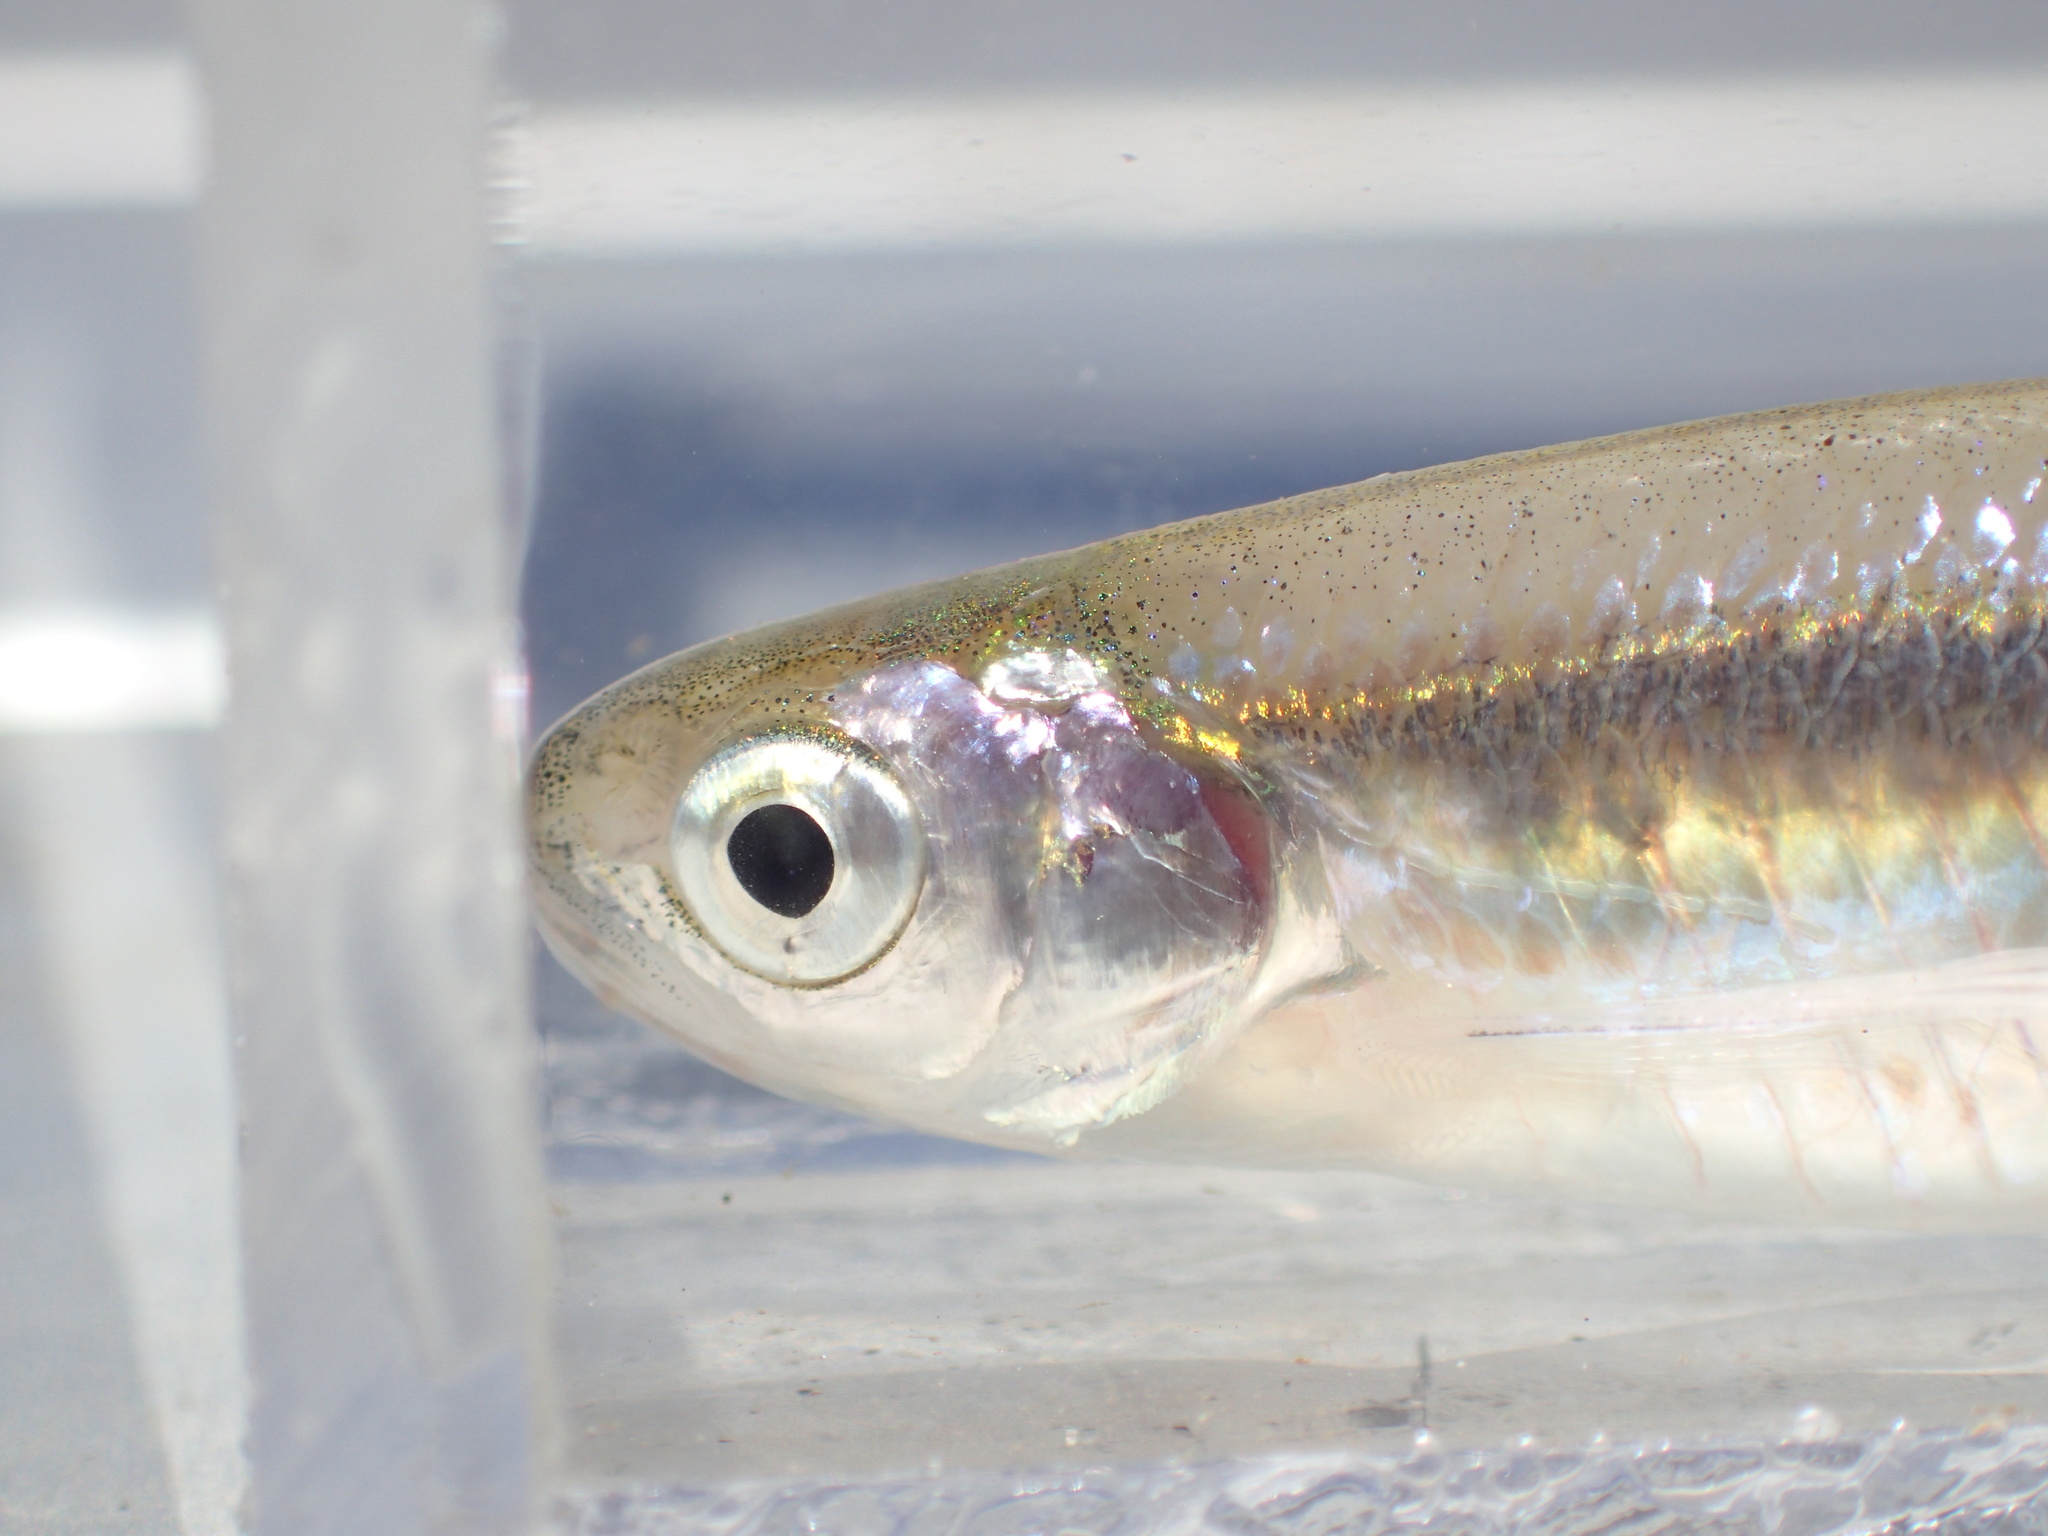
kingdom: Animalia
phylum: Chordata
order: Cypriniformes
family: Cyprinidae
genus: Engraulicypris
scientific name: Engraulicypris gariepinus
